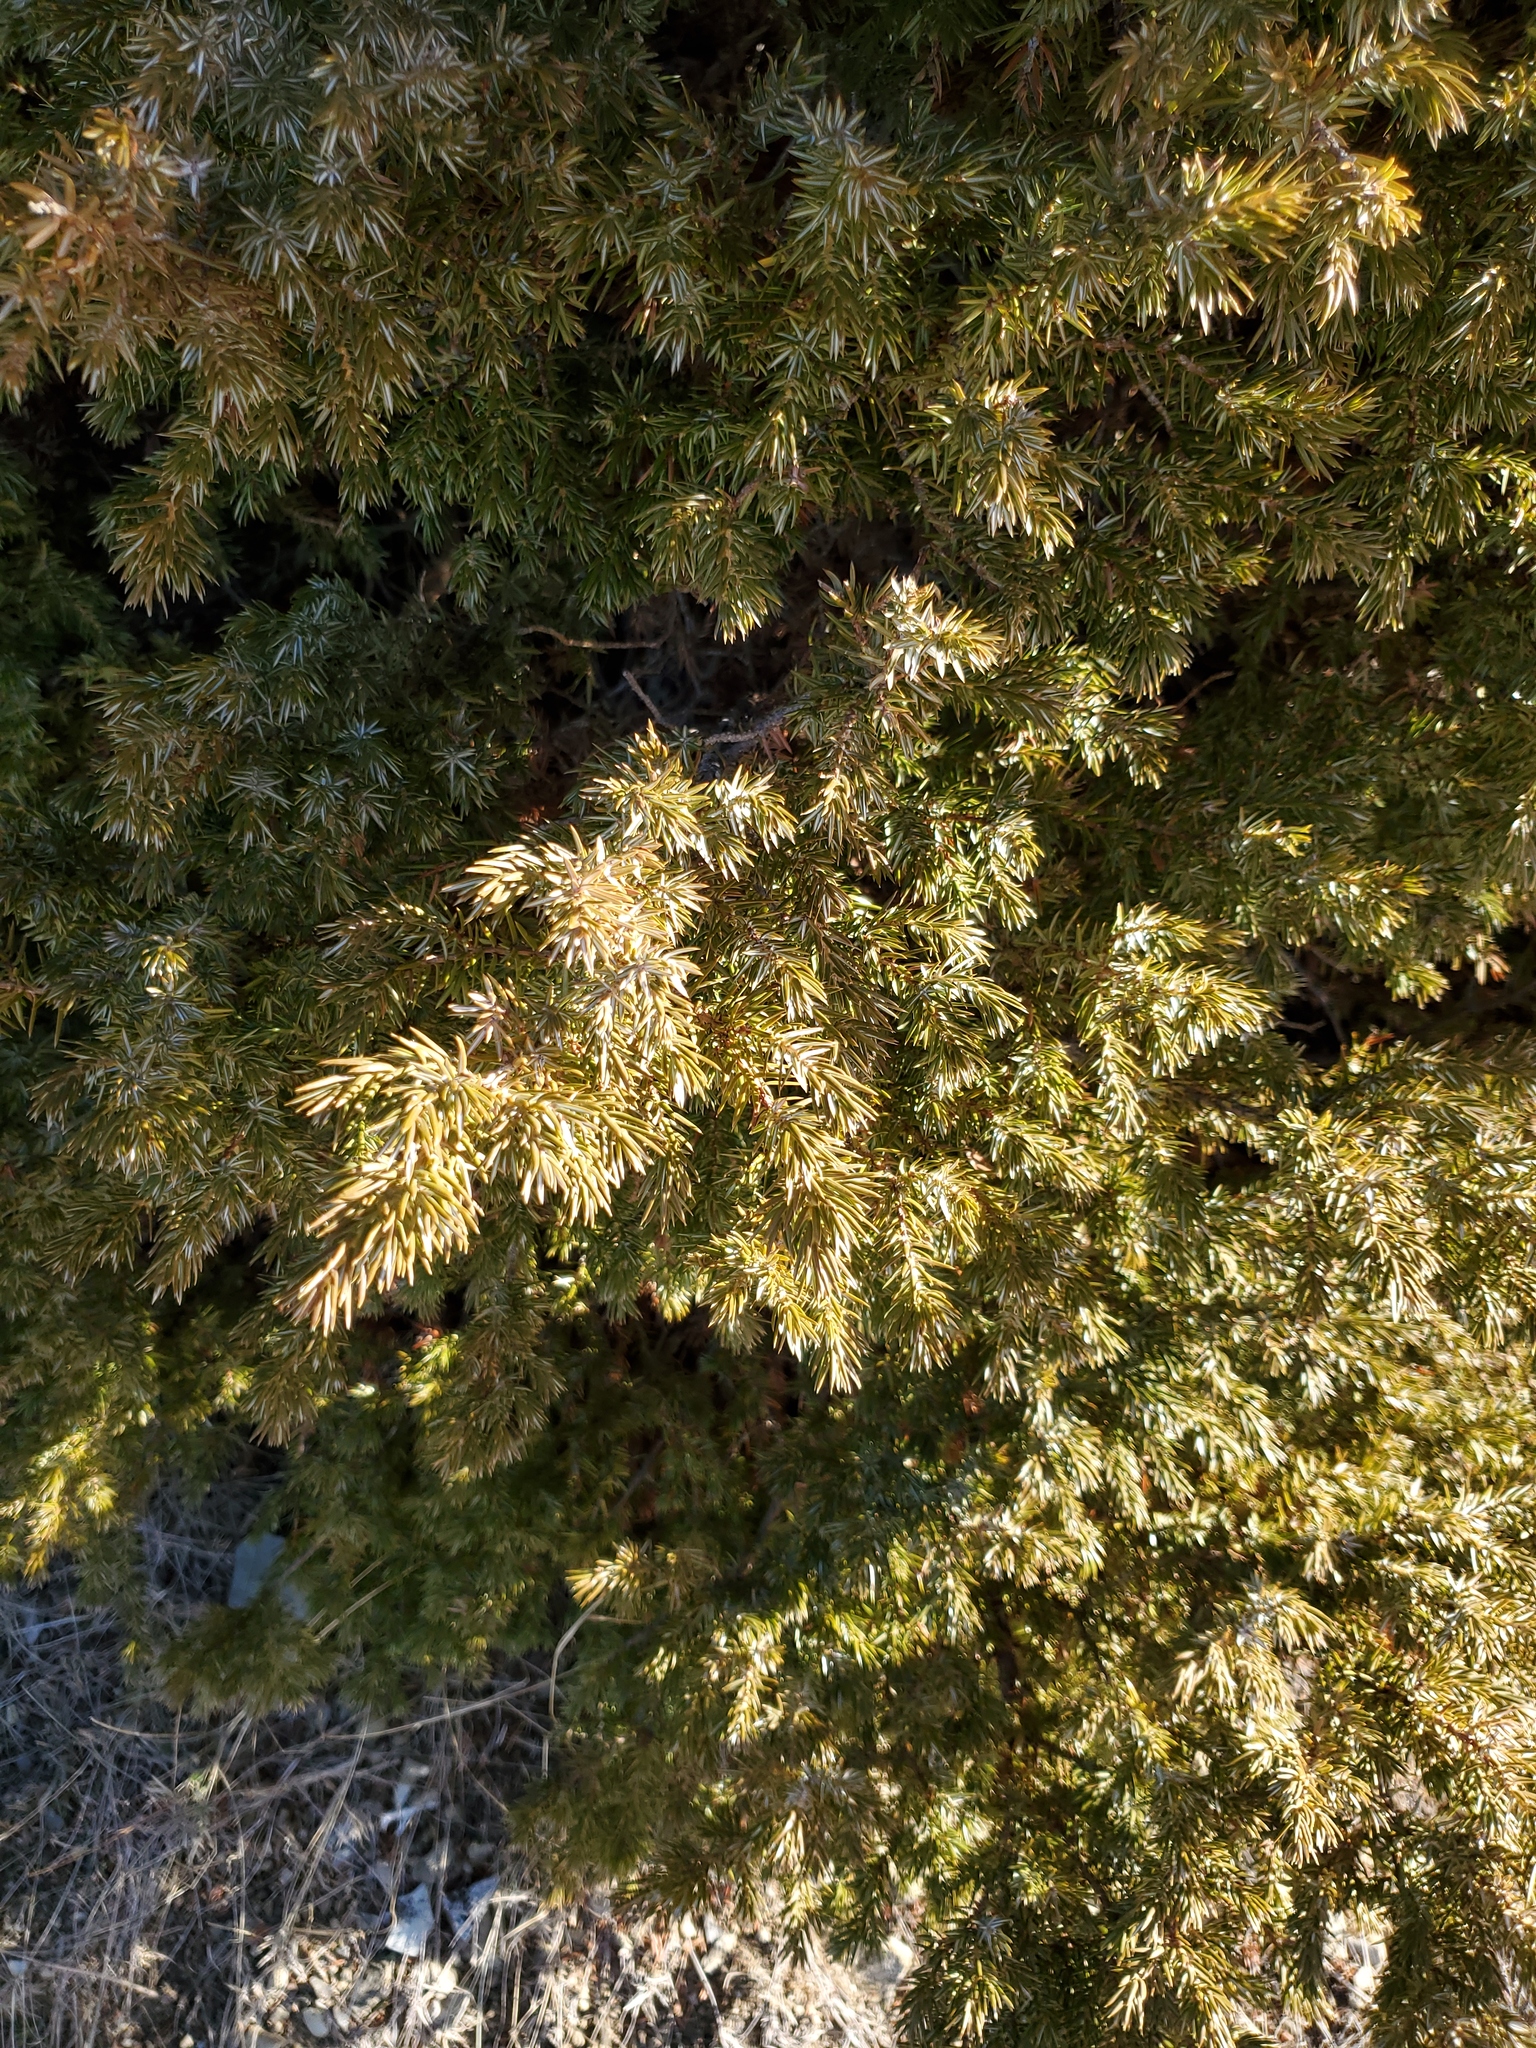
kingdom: Plantae
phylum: Tracheophyta
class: Pinopsida
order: Pinales
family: Cupressaceae
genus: Juniperus
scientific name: Juniperus communis
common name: Common juniper
